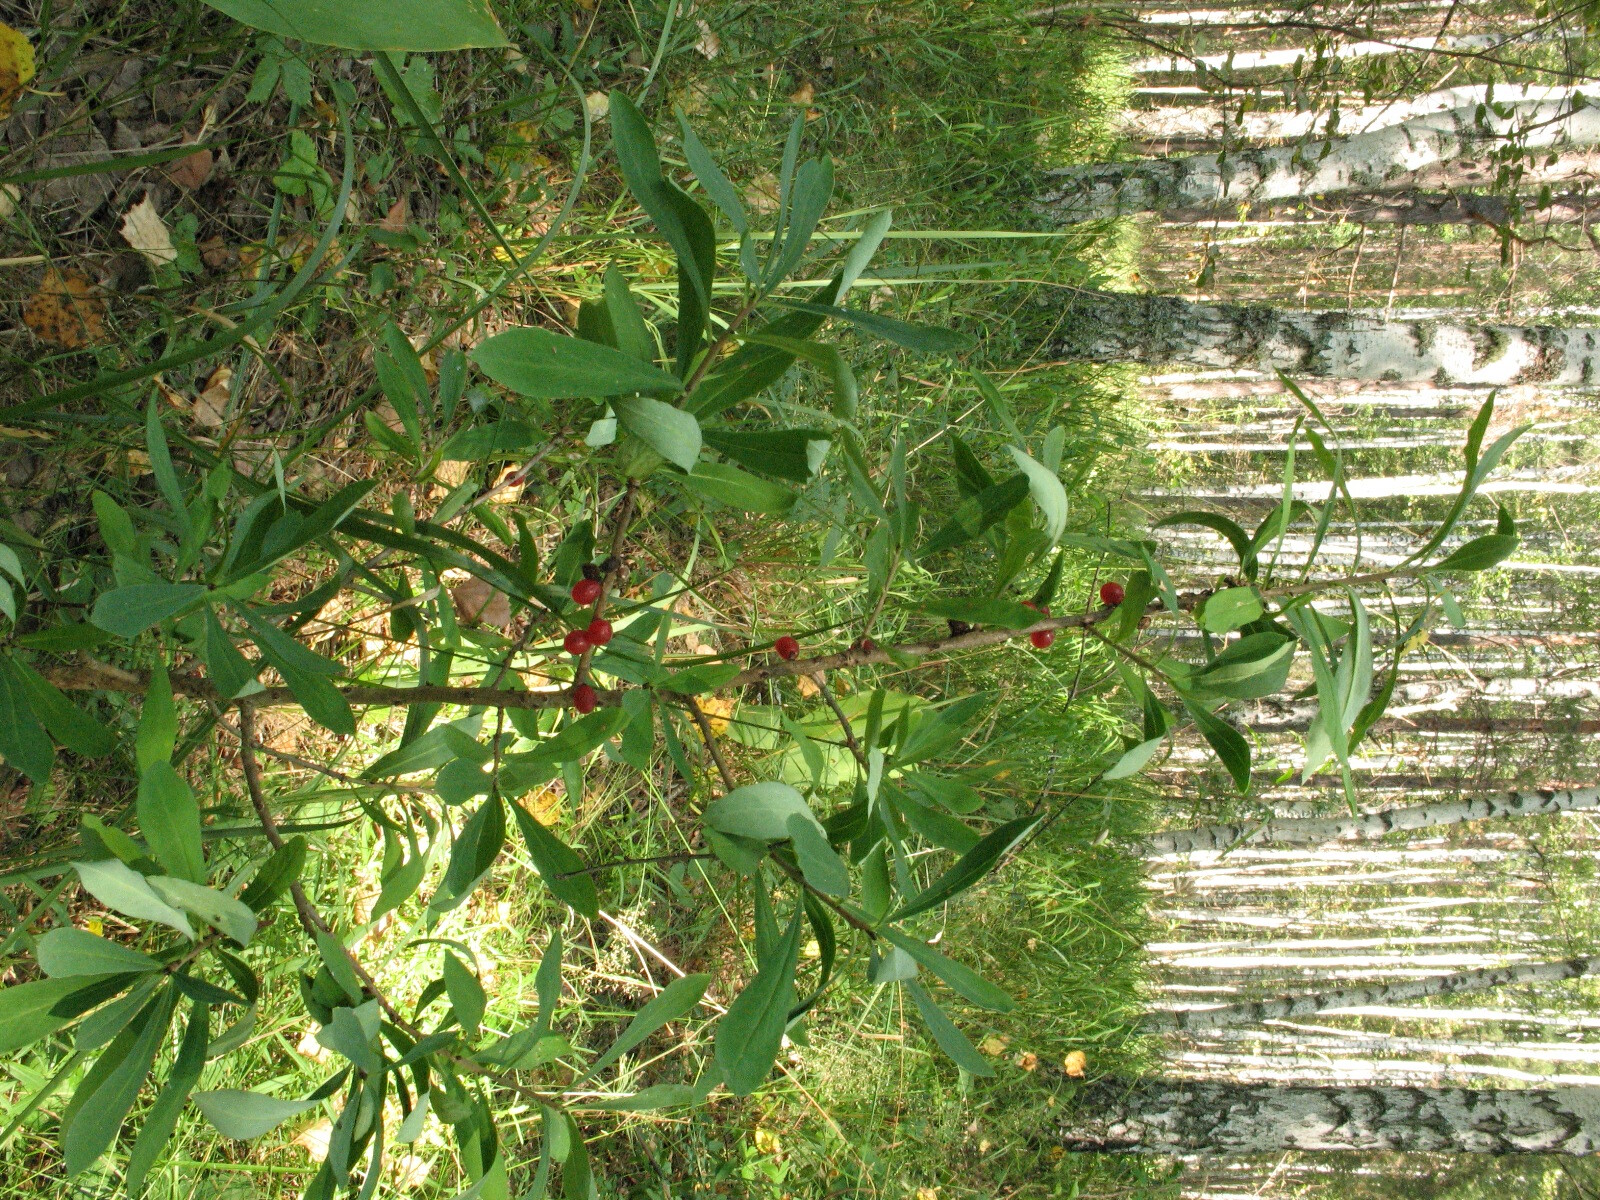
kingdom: Plantae
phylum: Tracheophyta
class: Magnoliopsida
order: Malvales
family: Thymelaeaceae
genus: Daphne
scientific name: Daphne mezereum
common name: Mezereon
